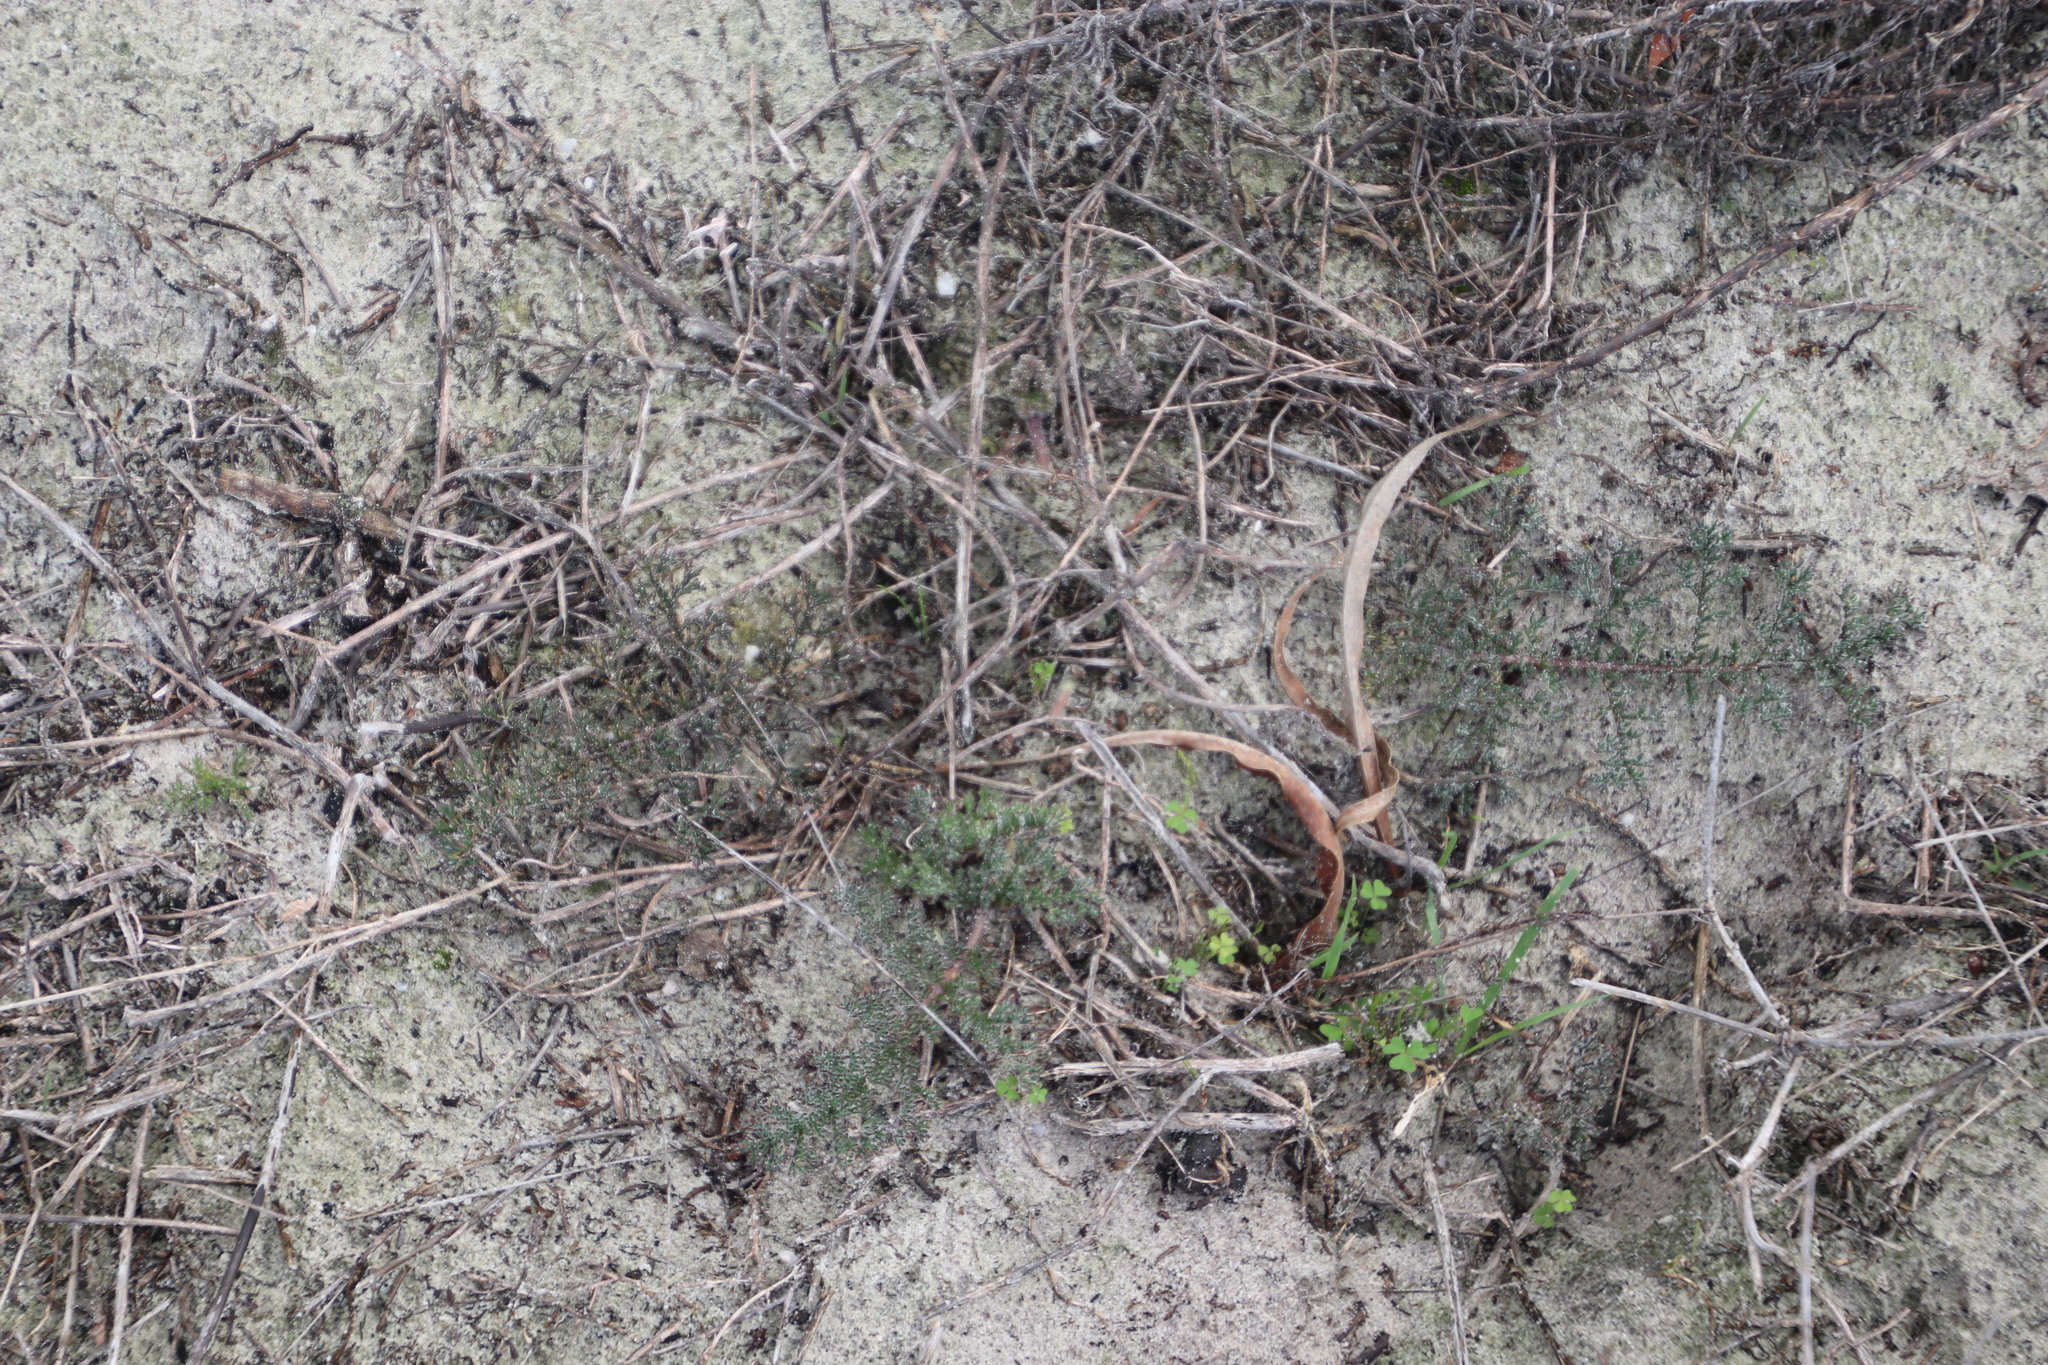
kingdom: Plantae
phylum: Tracheophyta
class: Magnoliopsida
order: Geraniales
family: Geraniaceae
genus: Pelargonium
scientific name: Pelargonium triste
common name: Night-scent pelargonium
